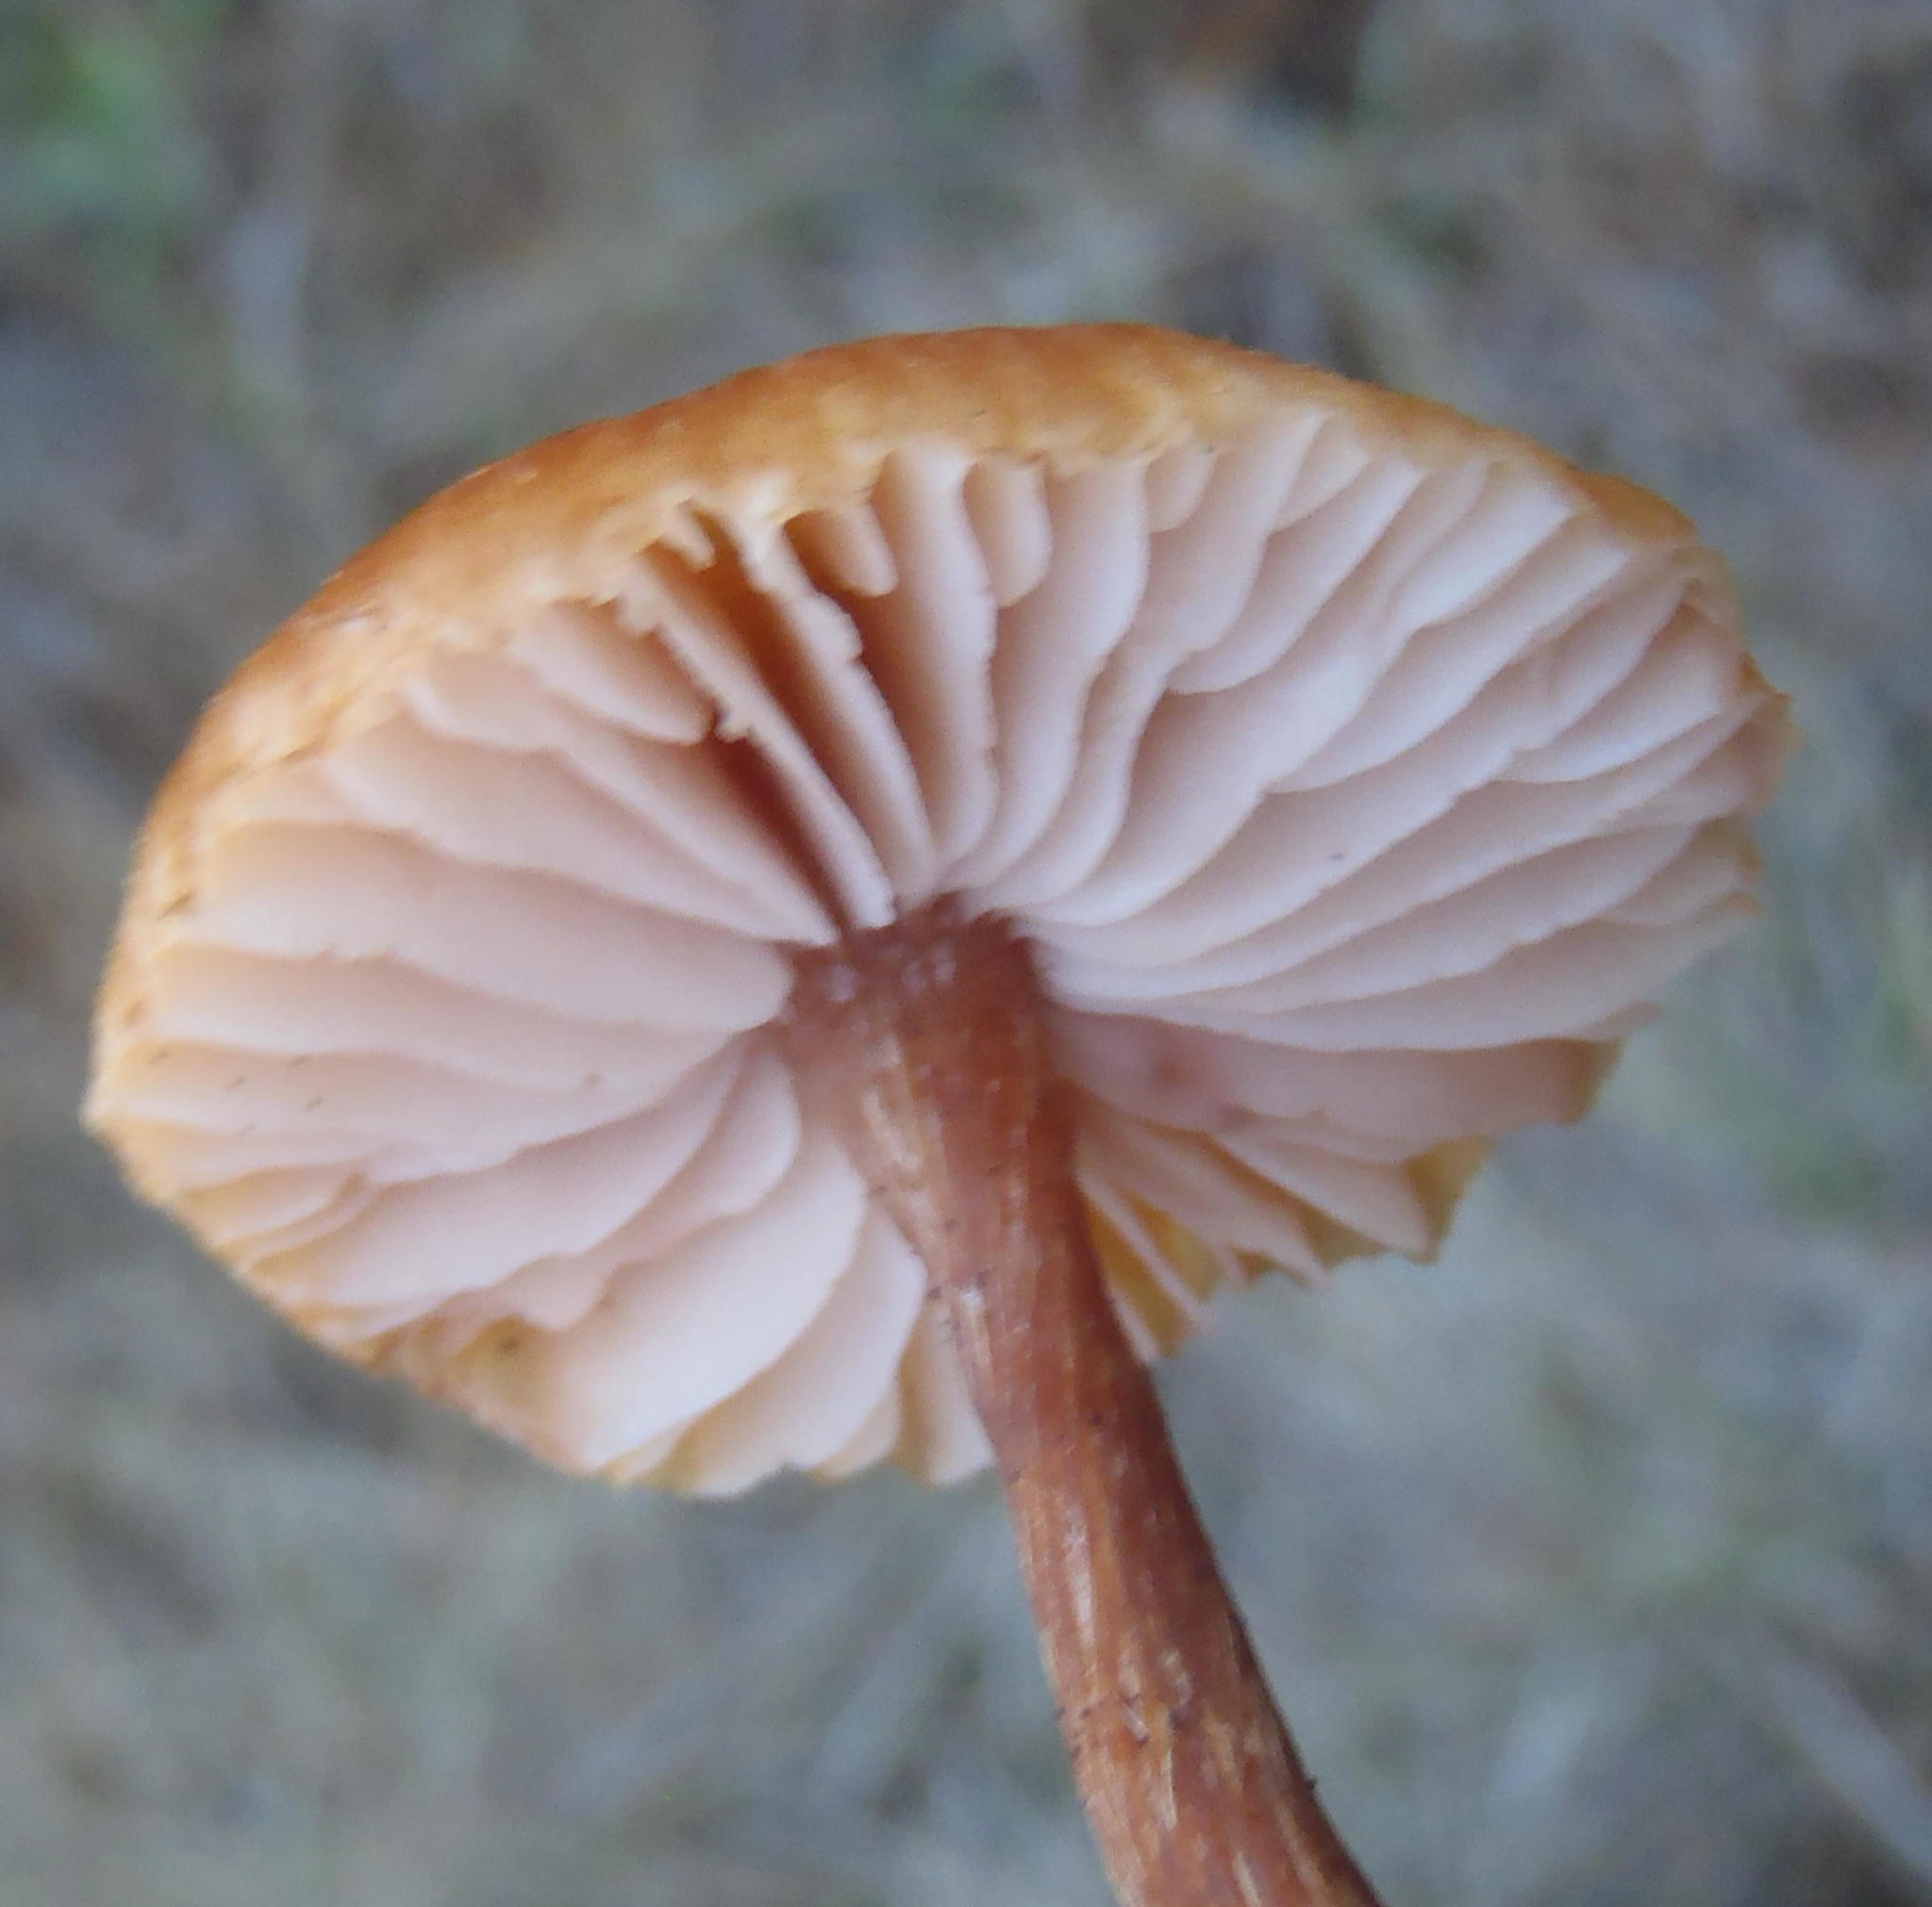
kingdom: Fungi
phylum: Basidiomycota
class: Agaricomycetes
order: Agaricales
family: Hydnangiaceae
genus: Laccaria
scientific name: Laccaria laccata
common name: Deceiver
